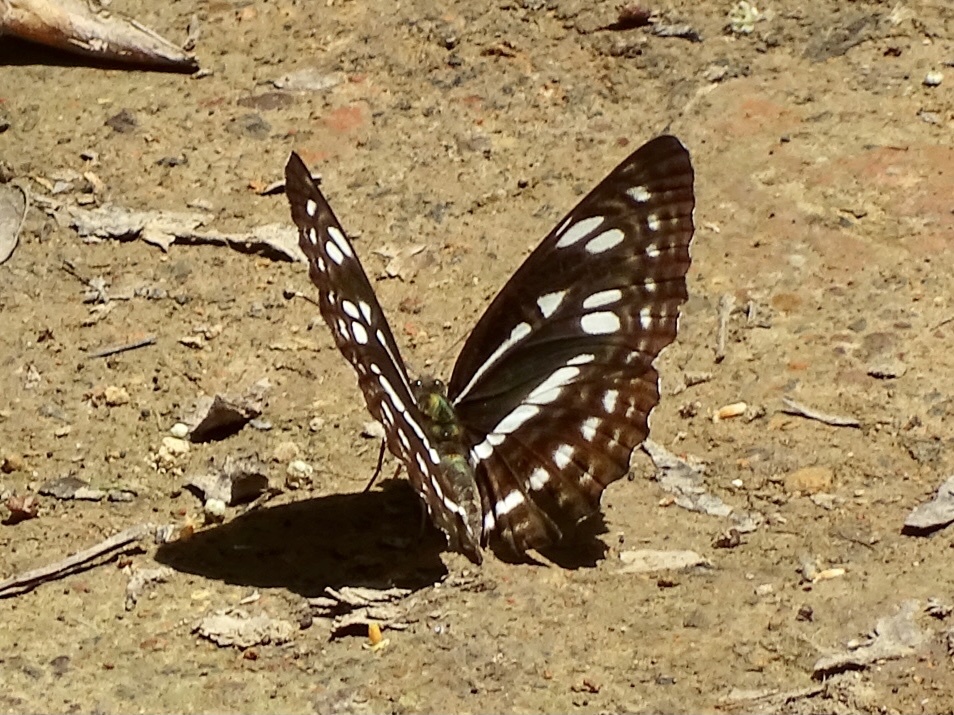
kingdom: Animalia
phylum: Arthropoda
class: Insecta
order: Lepidoptera
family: Nymphalidae
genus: Phaedyma
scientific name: Phaedyma columella
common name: Short banded sailer
